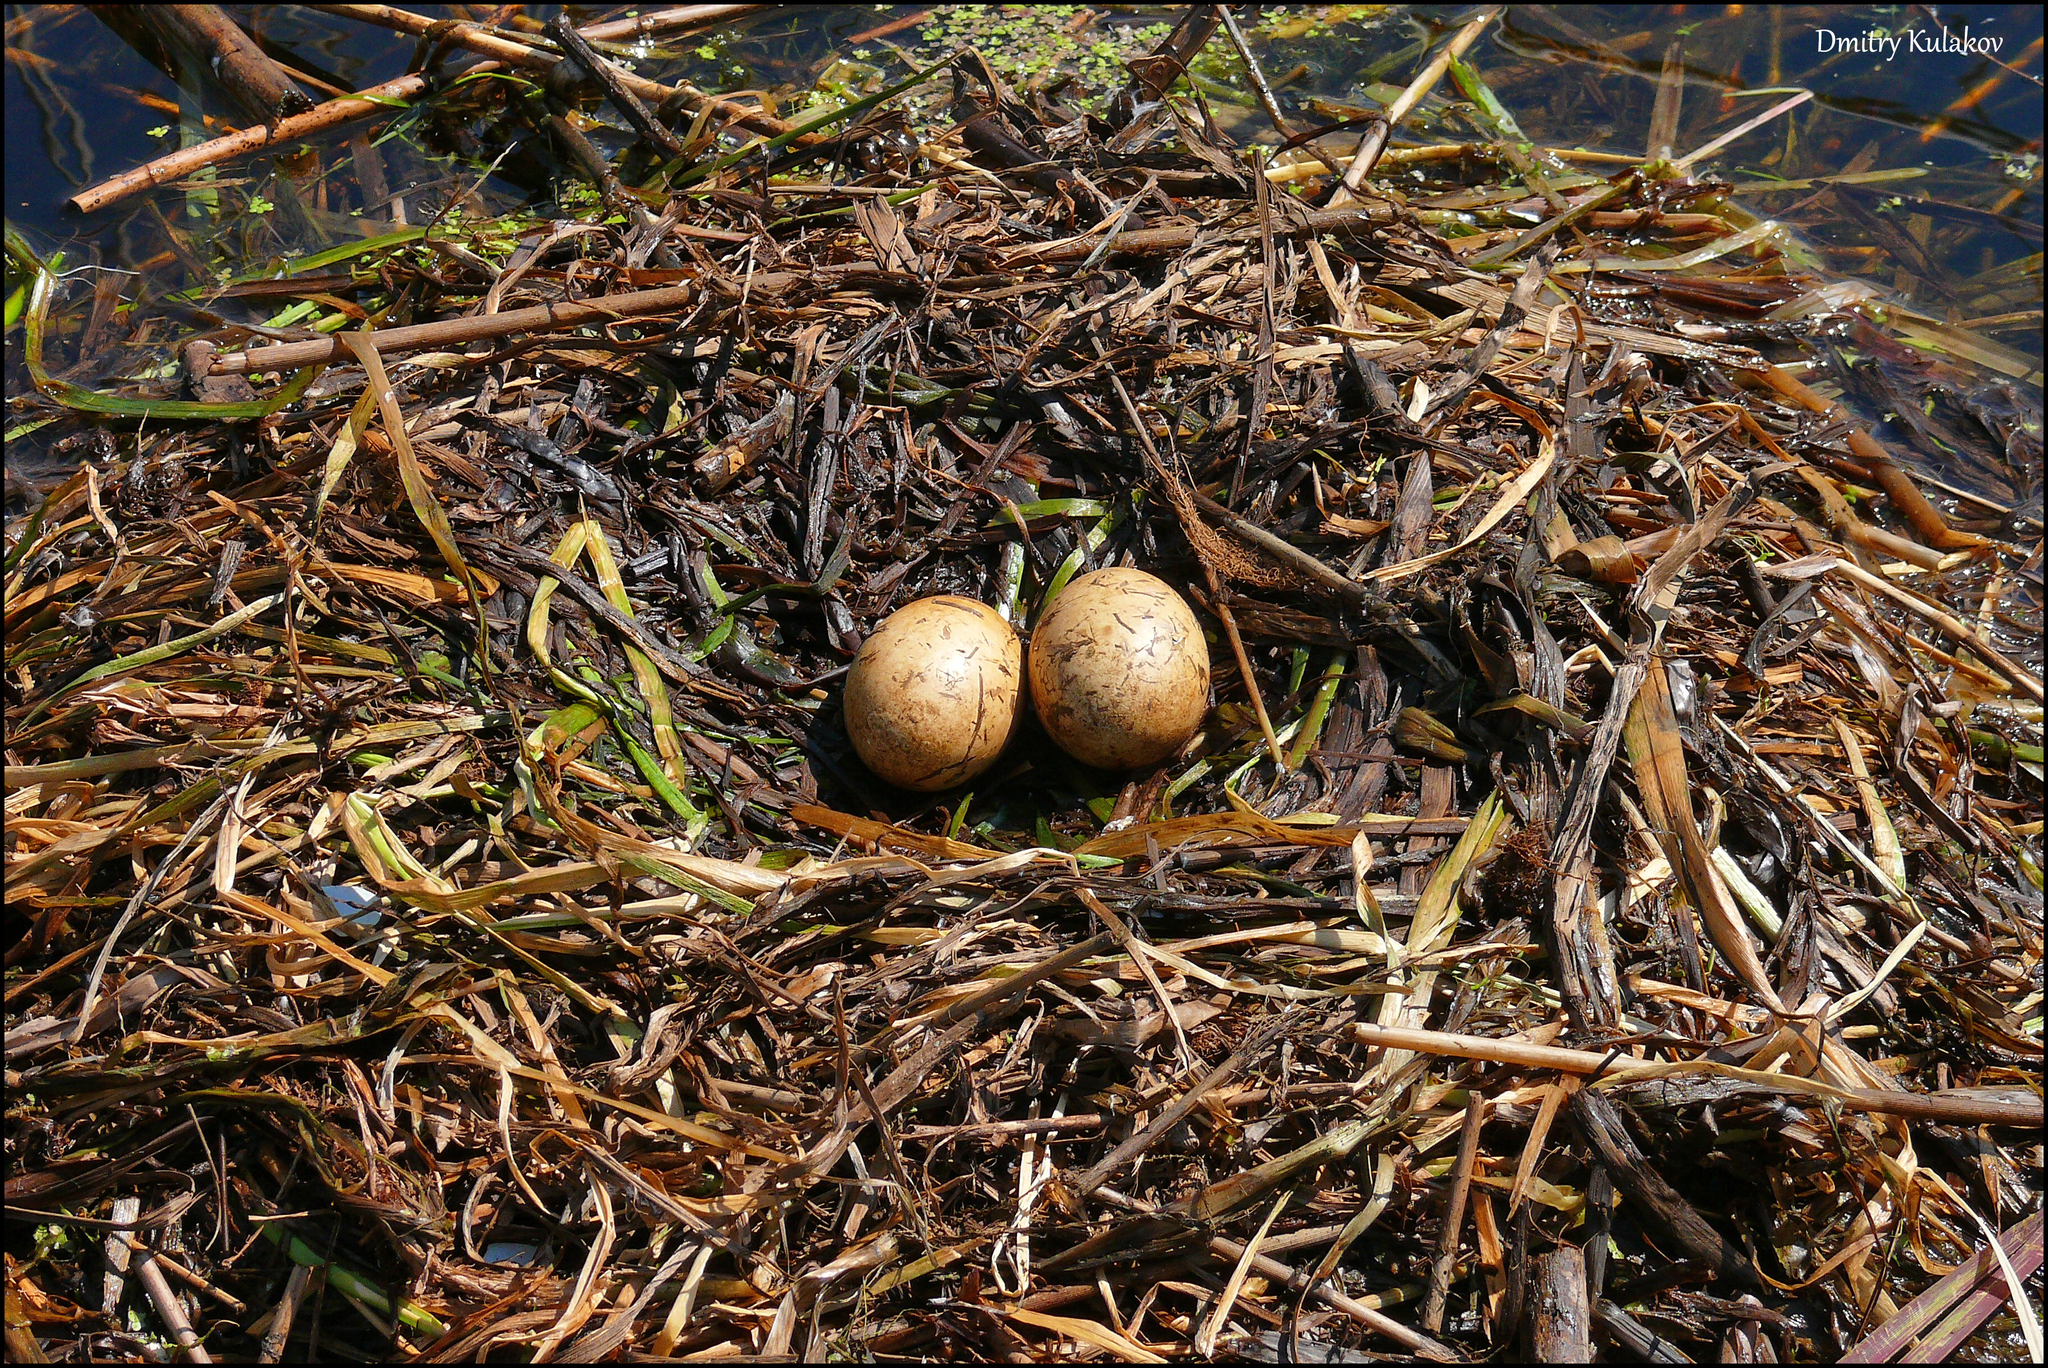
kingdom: Animalia
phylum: Chordata
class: Aves
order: Podicipediformes
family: Podicipedidae
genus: Podiceps
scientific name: Podiceps cristatus
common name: Great crested grebe
